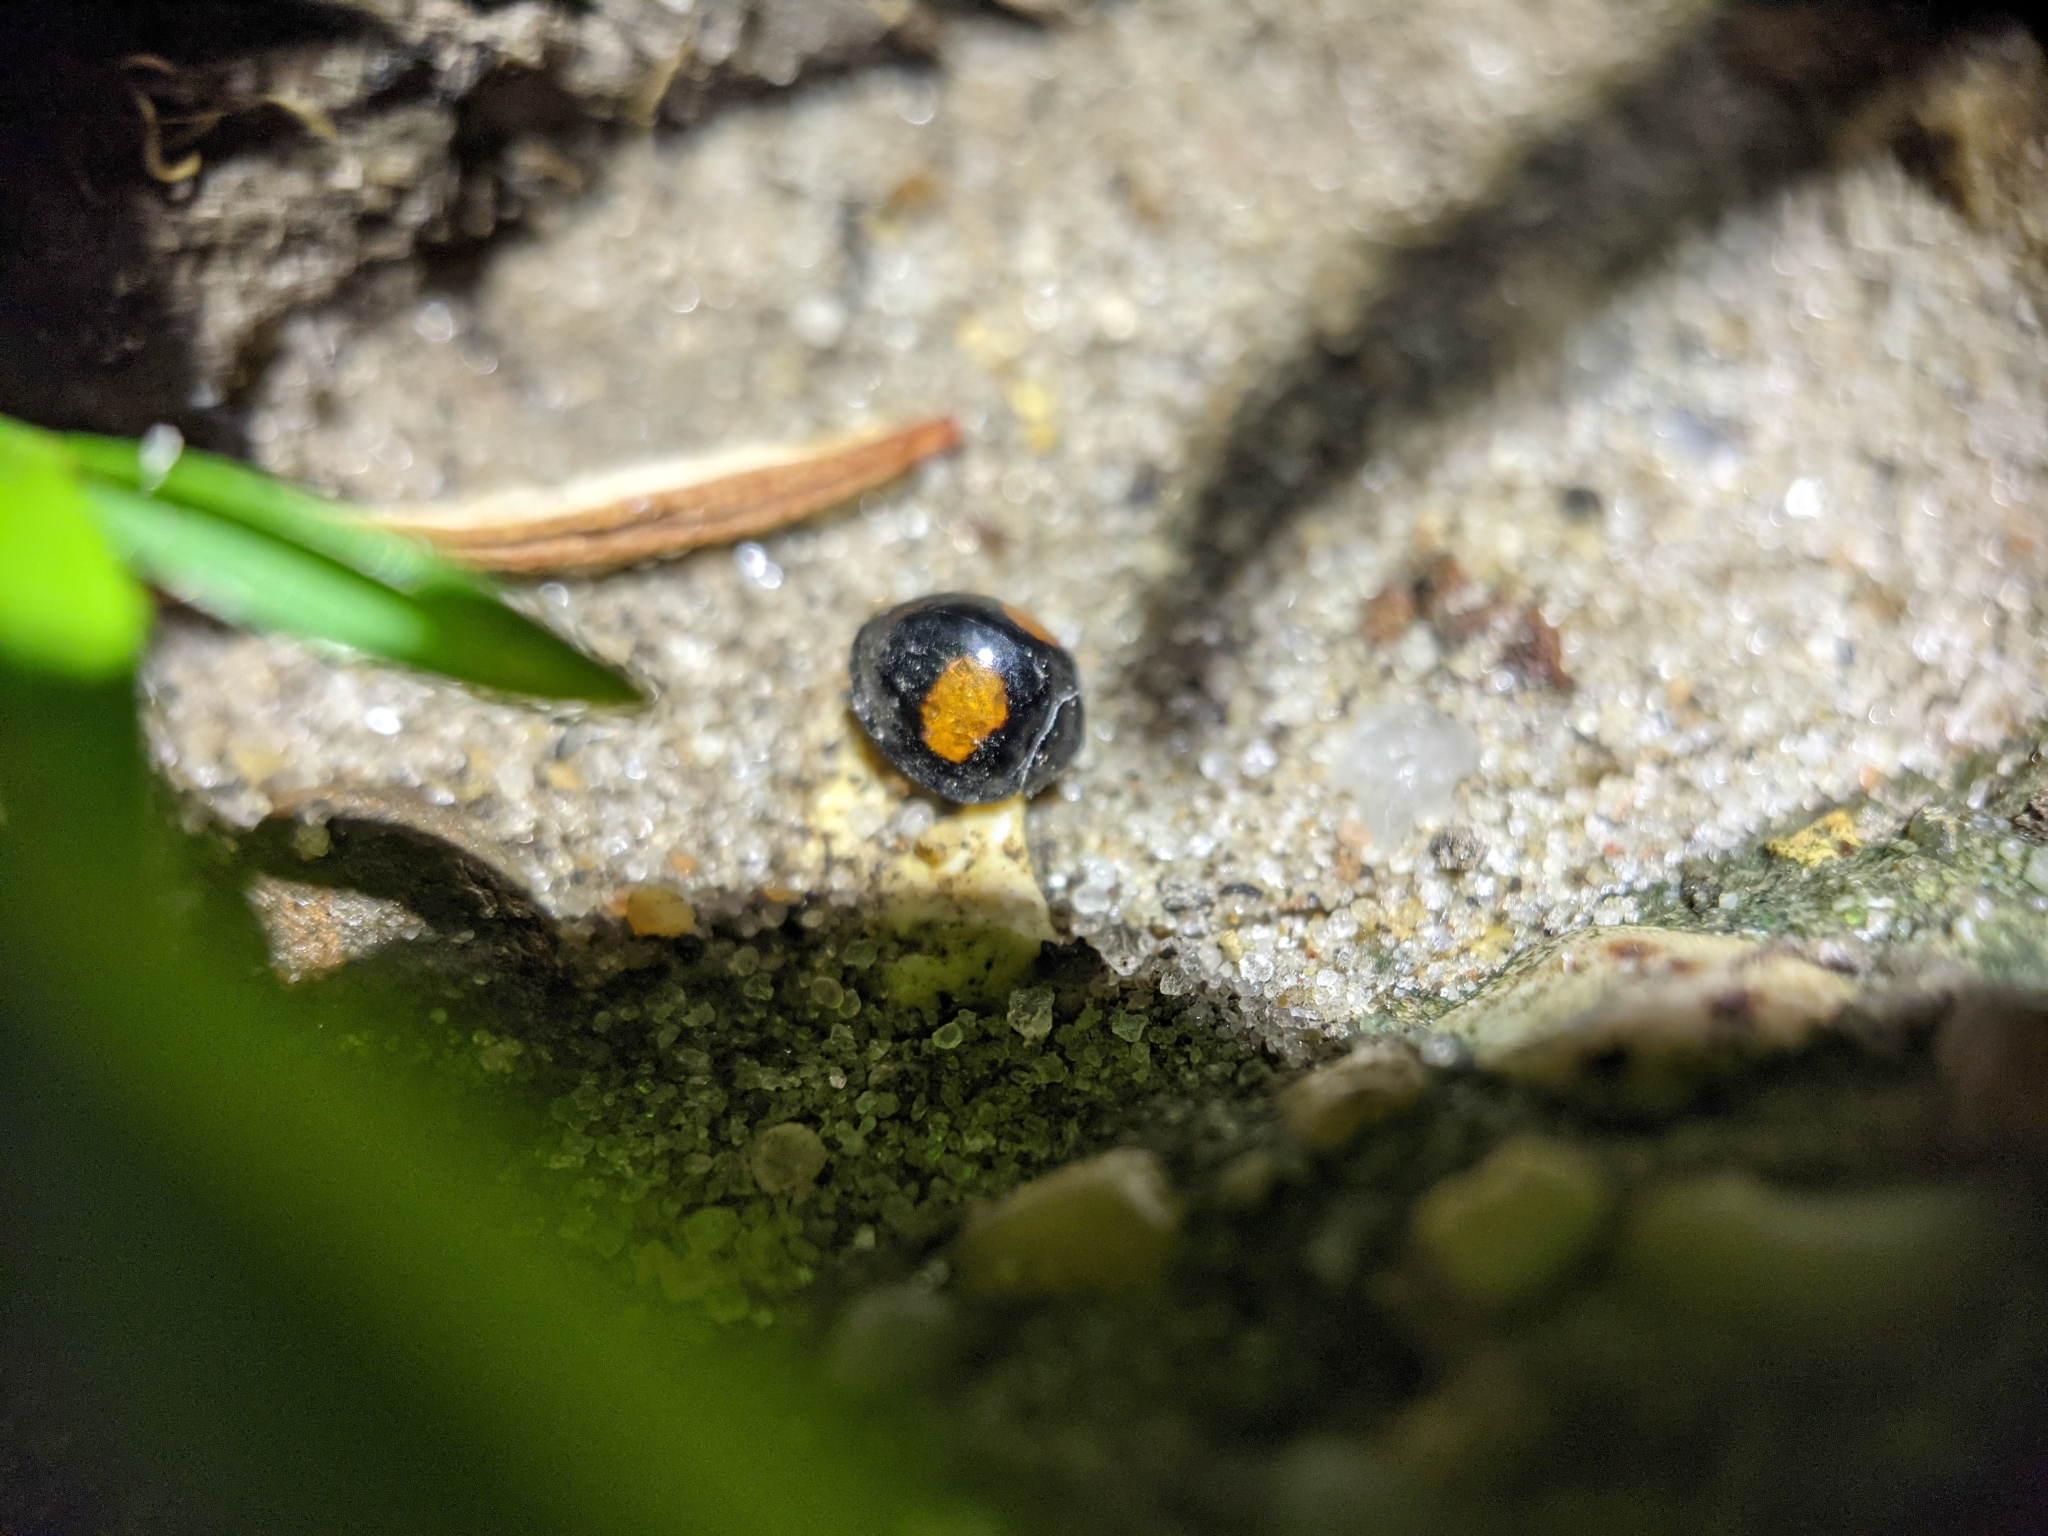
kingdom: Animalia
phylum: Arthropoda
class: Insecta
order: Coleoptera
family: Coccinellidae
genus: Chilocorus
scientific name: Chilocorus cacti
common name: Cactus lady beetle
